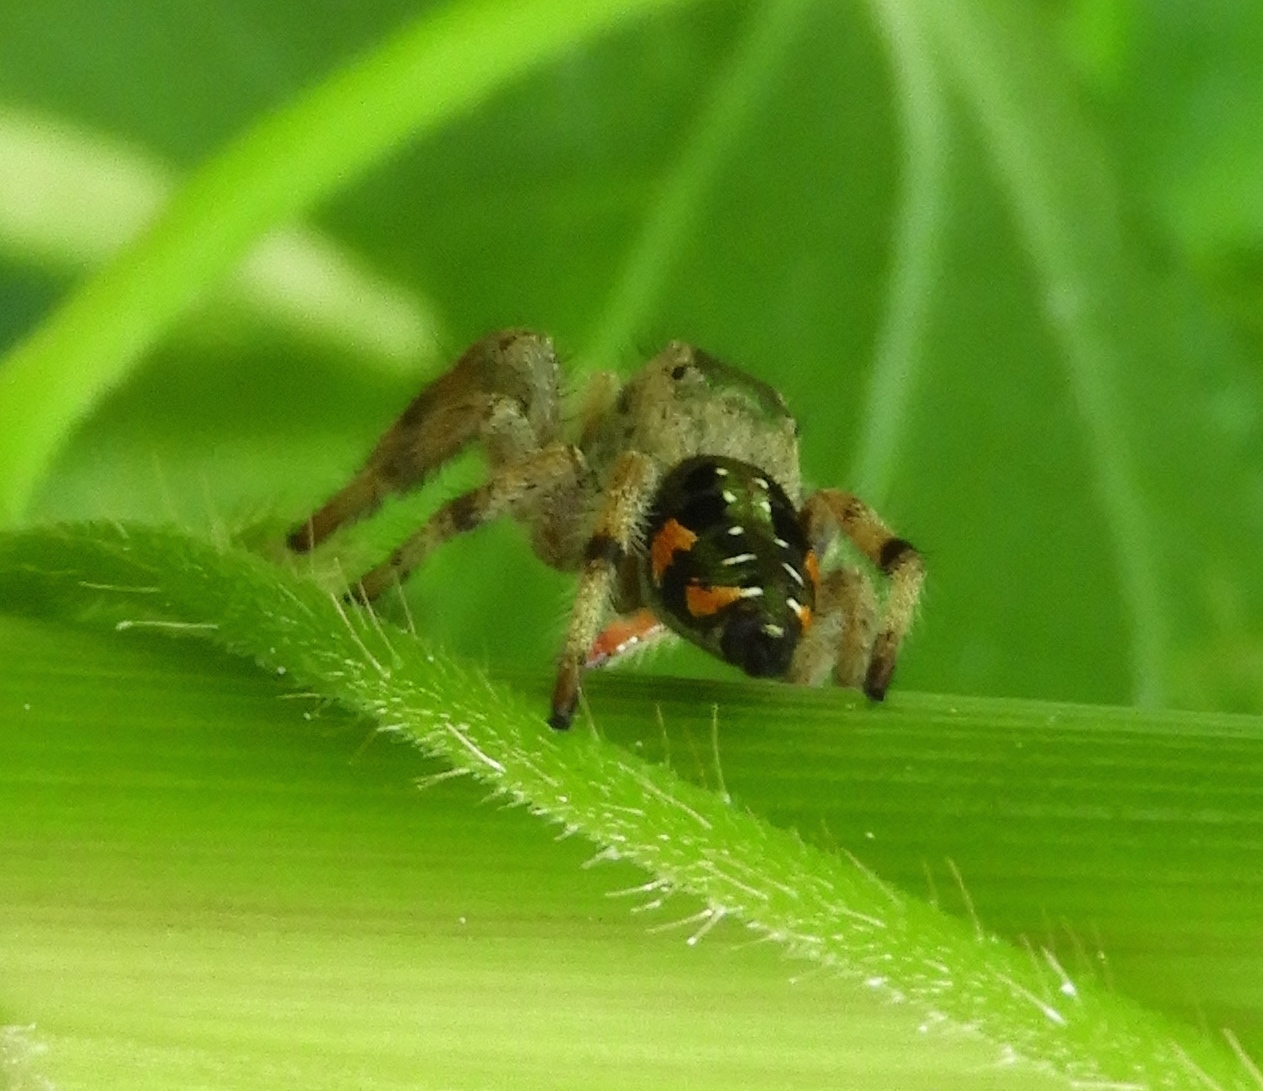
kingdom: Animalia
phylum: Arthropoda
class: Arachnida
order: Araneae
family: Salticidae
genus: Paraphidippus
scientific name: Paraphidippus
